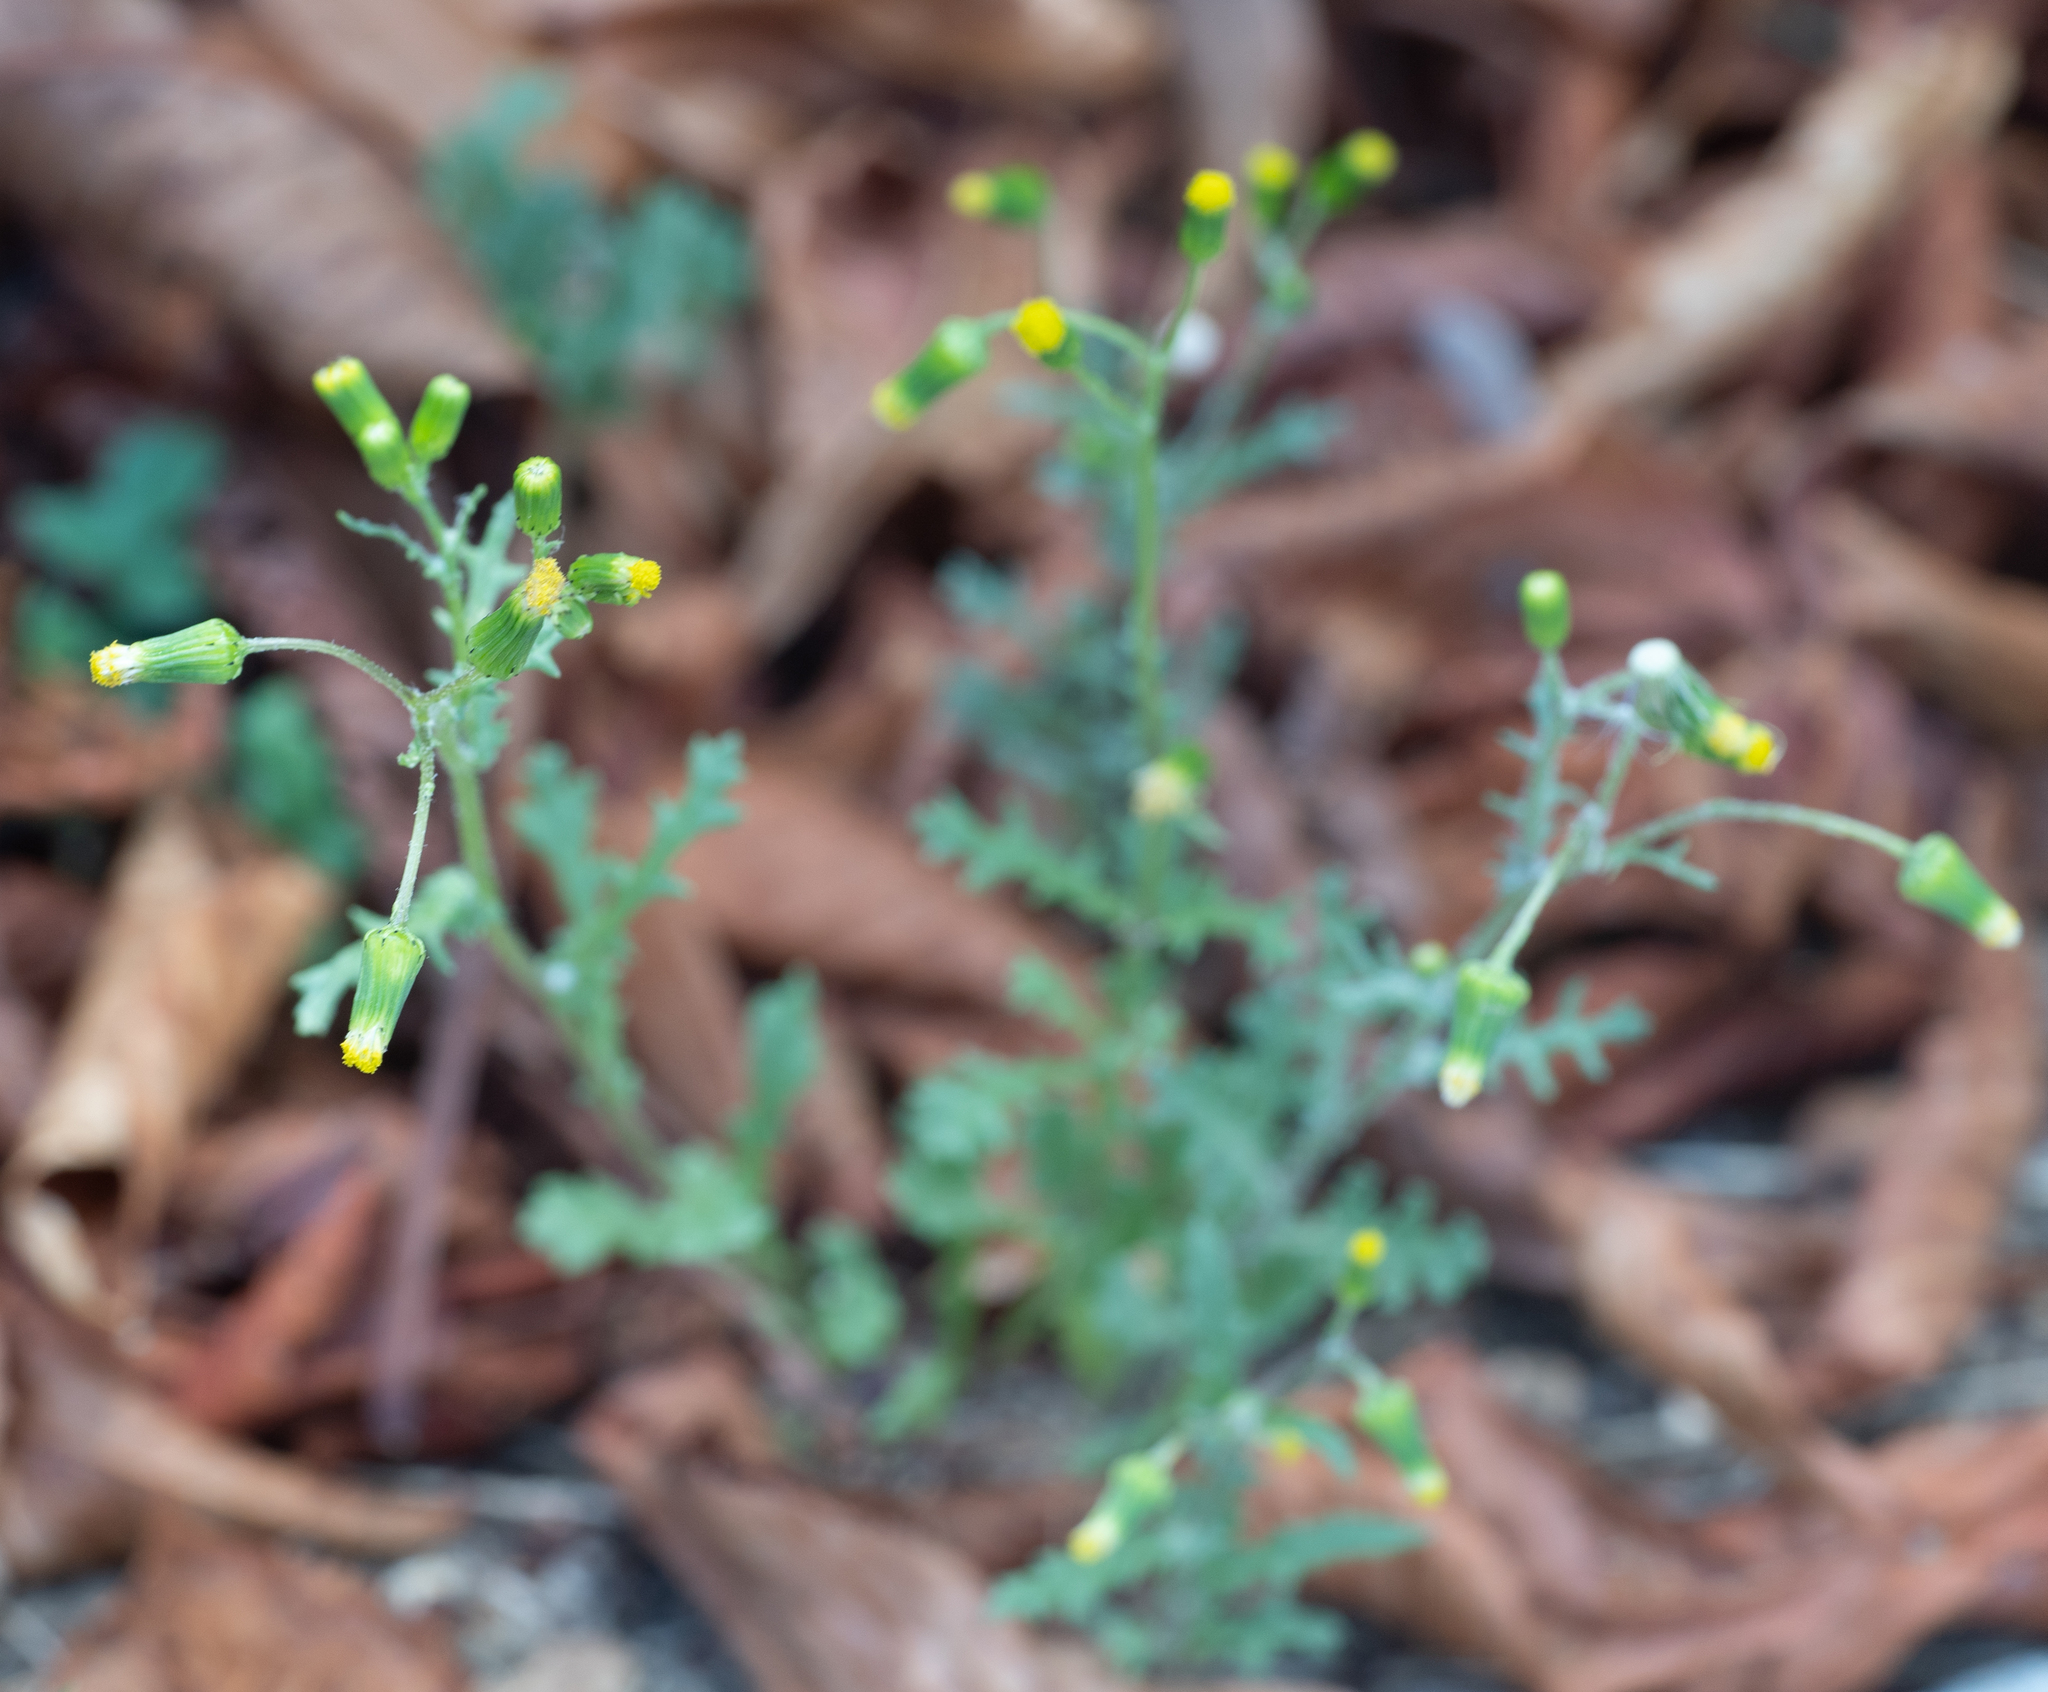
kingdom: Plantae
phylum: Tracheophyta
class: Magnoliopsida
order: Asterales
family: Asteraceae
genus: Senecio
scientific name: Senecio vulgaris
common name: Old-man-in-the-spring
